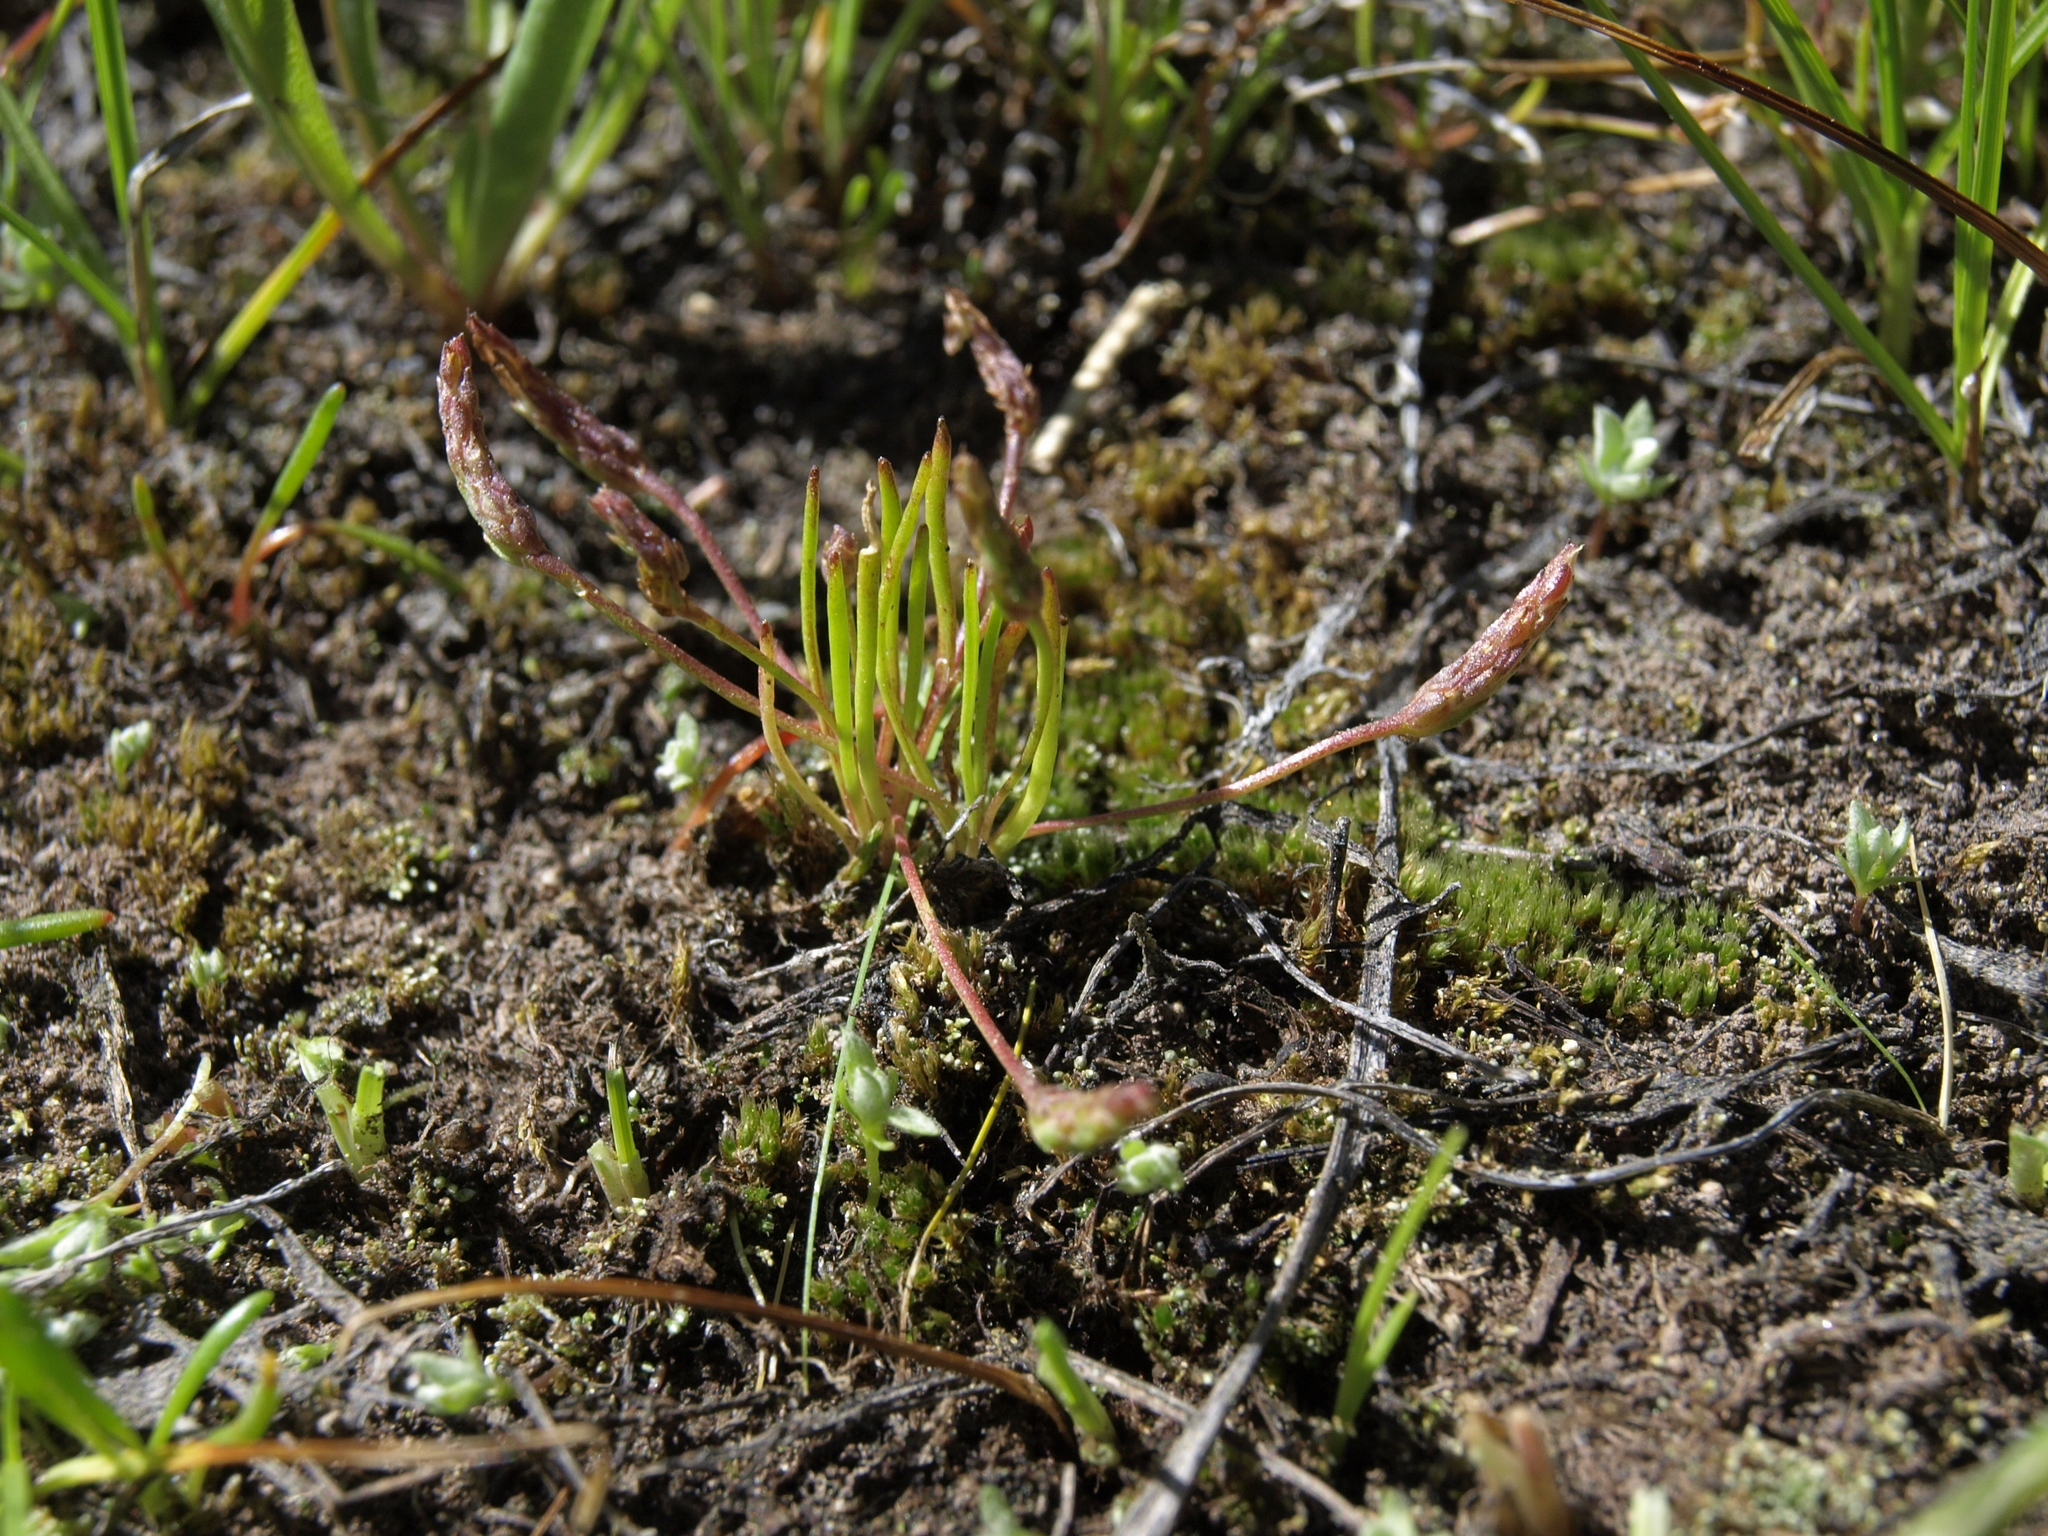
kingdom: Plantae
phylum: Tracheophyta
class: Magnoliopsida
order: Ranunculales
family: Ranunculaceae
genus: Myosurus
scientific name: Myosurus minimus
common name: Mousetail
